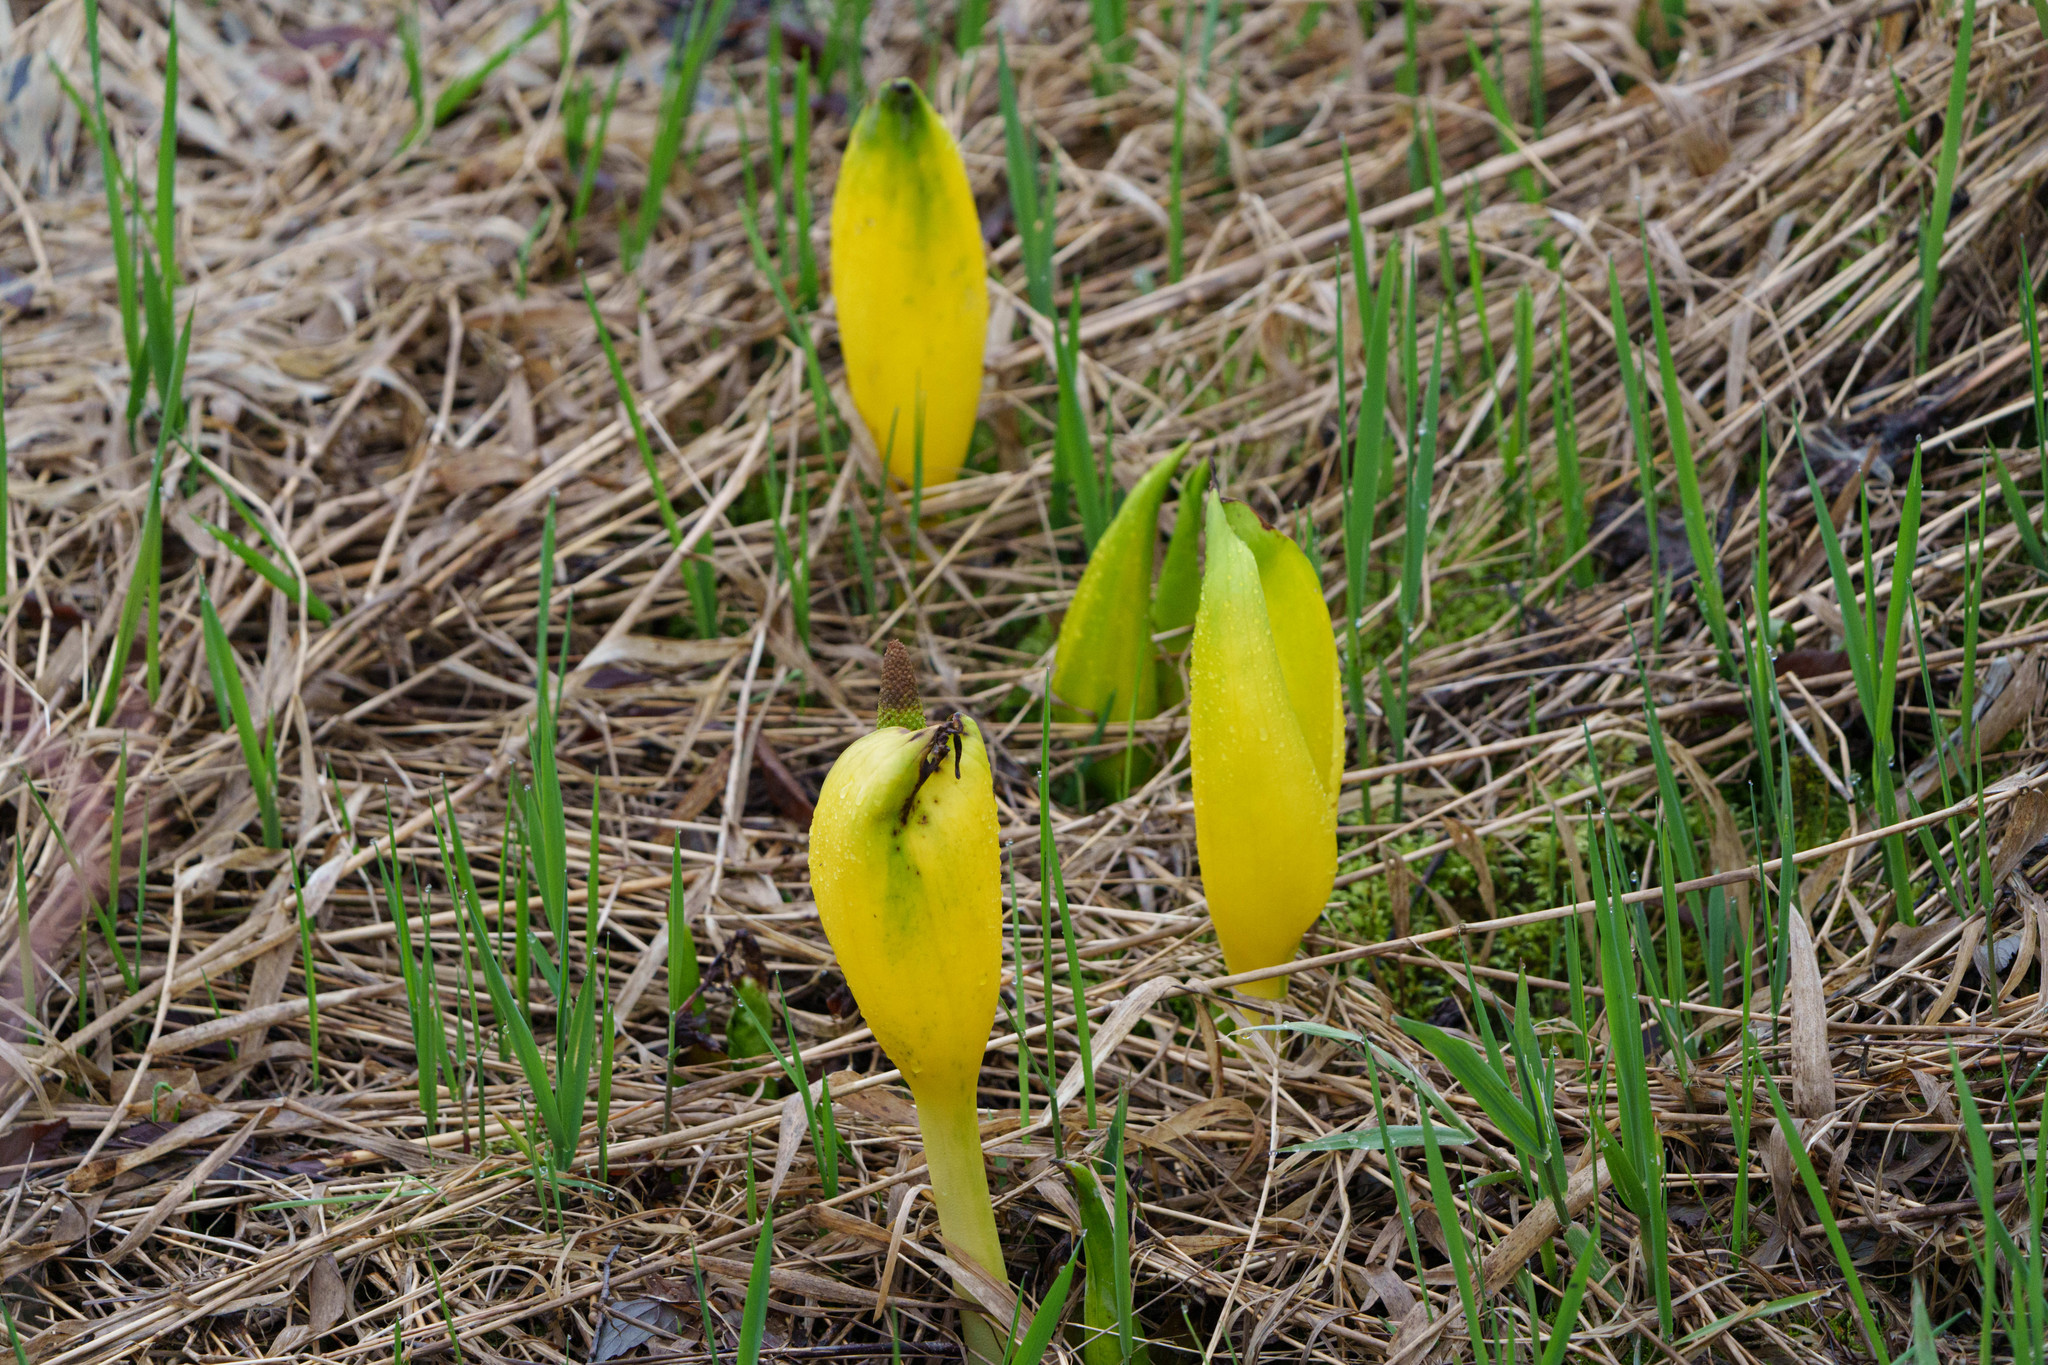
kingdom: Plantae
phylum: Tracheophyta
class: Liliopsida
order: Alismatales
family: Araceae
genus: Lysichiton
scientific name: Lysichiton americanus
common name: American skunk cabbage
